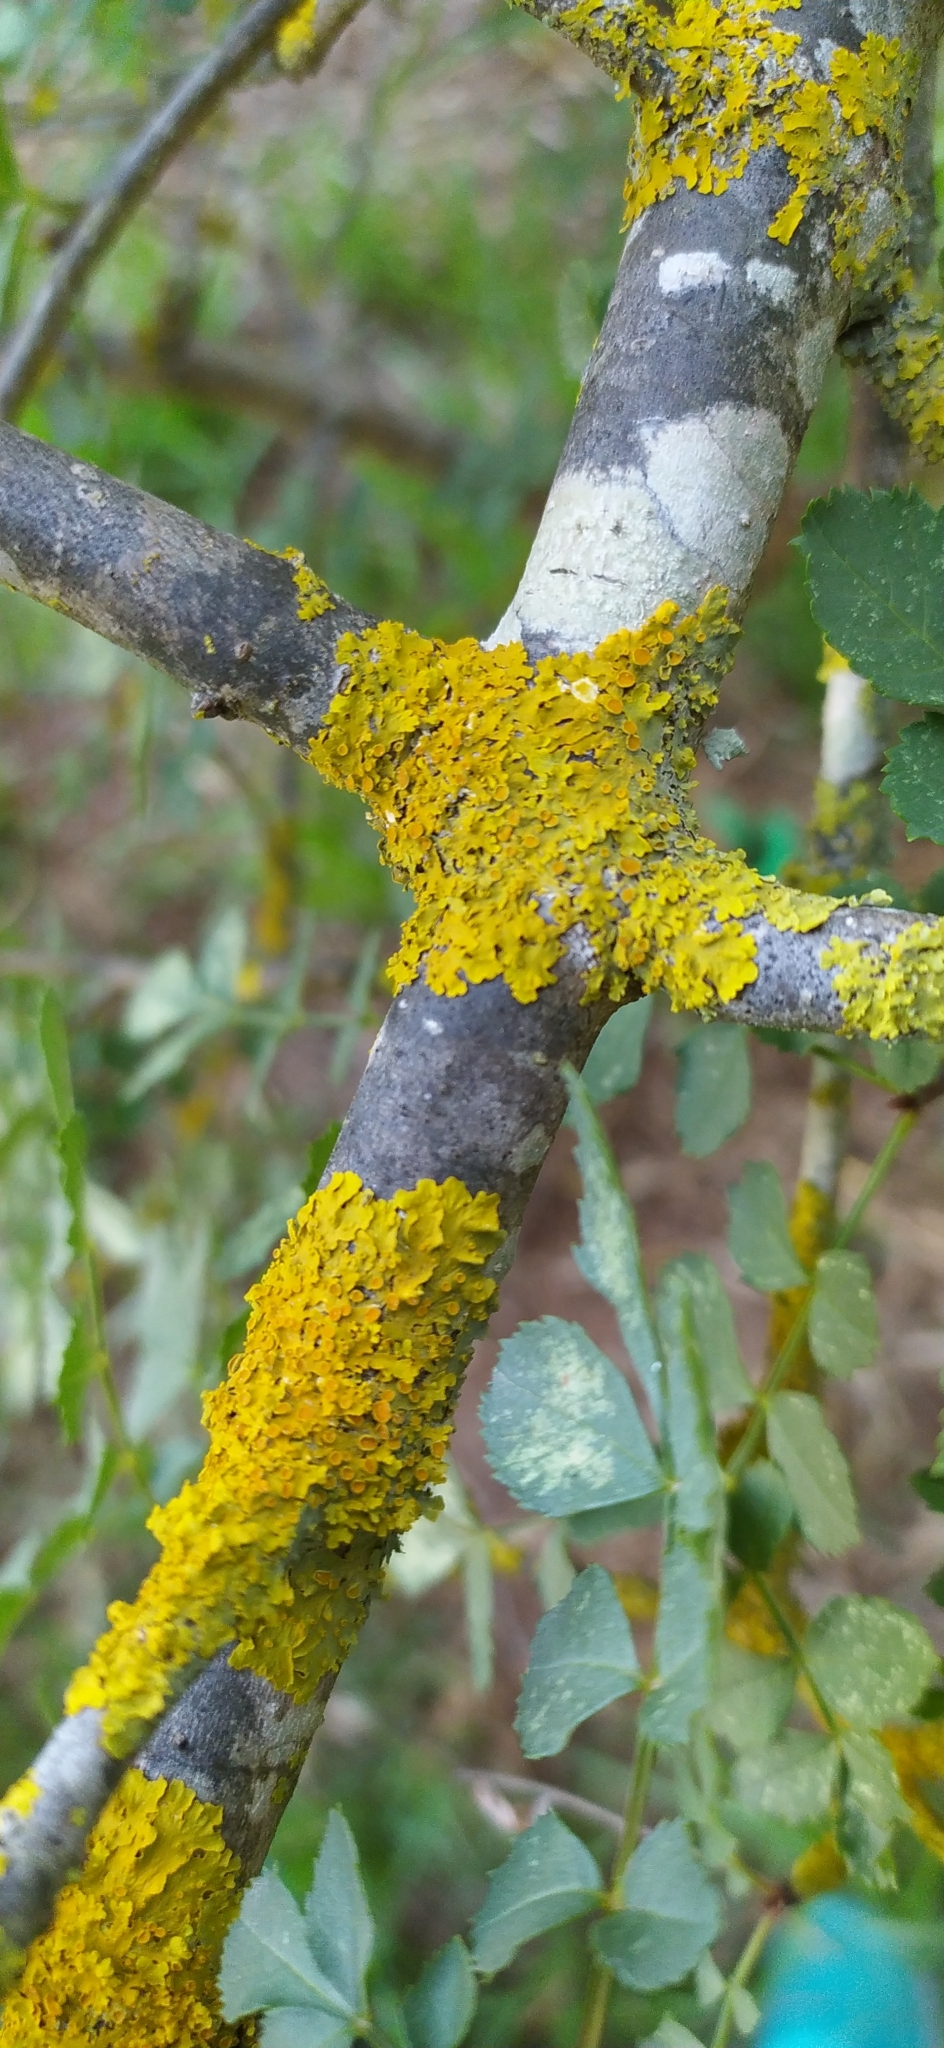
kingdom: Fungi
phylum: Ascomycota
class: Lecanoromycetes
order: Teloschistales
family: Teloschistaceae
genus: Xanthoria
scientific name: Xanthoria parietina
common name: Common orange lichen
